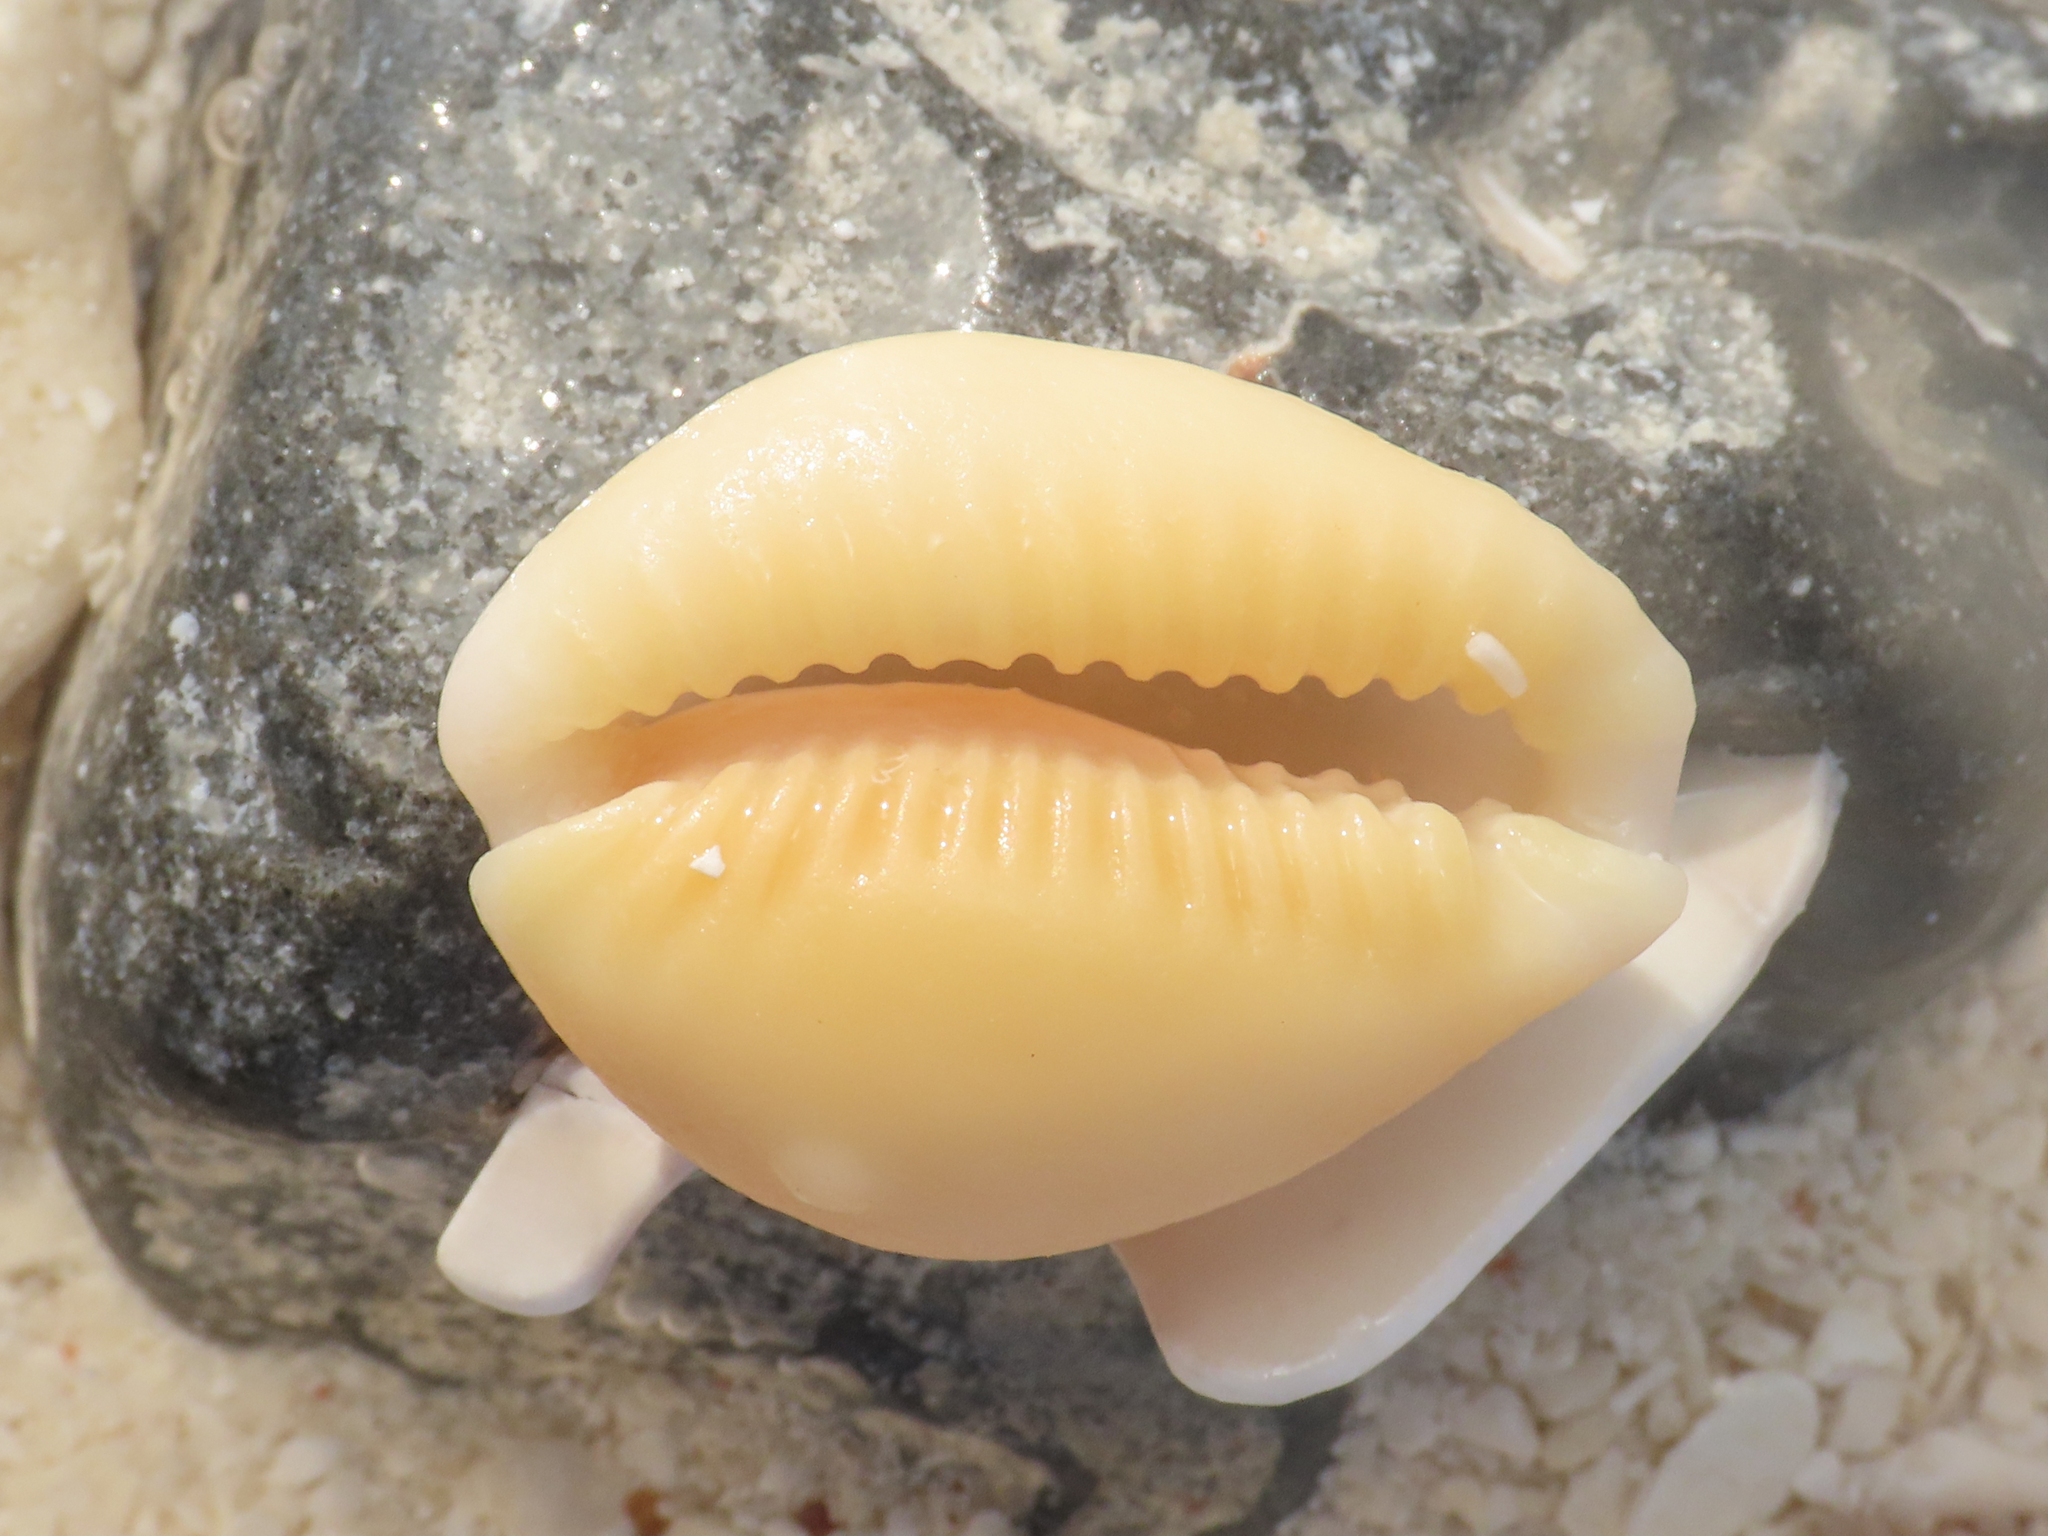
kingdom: Animalia
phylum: Mollusca
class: Gastropoda
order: Littorinimorpha
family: Cypraeidae
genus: Naria
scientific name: Naria helvola
